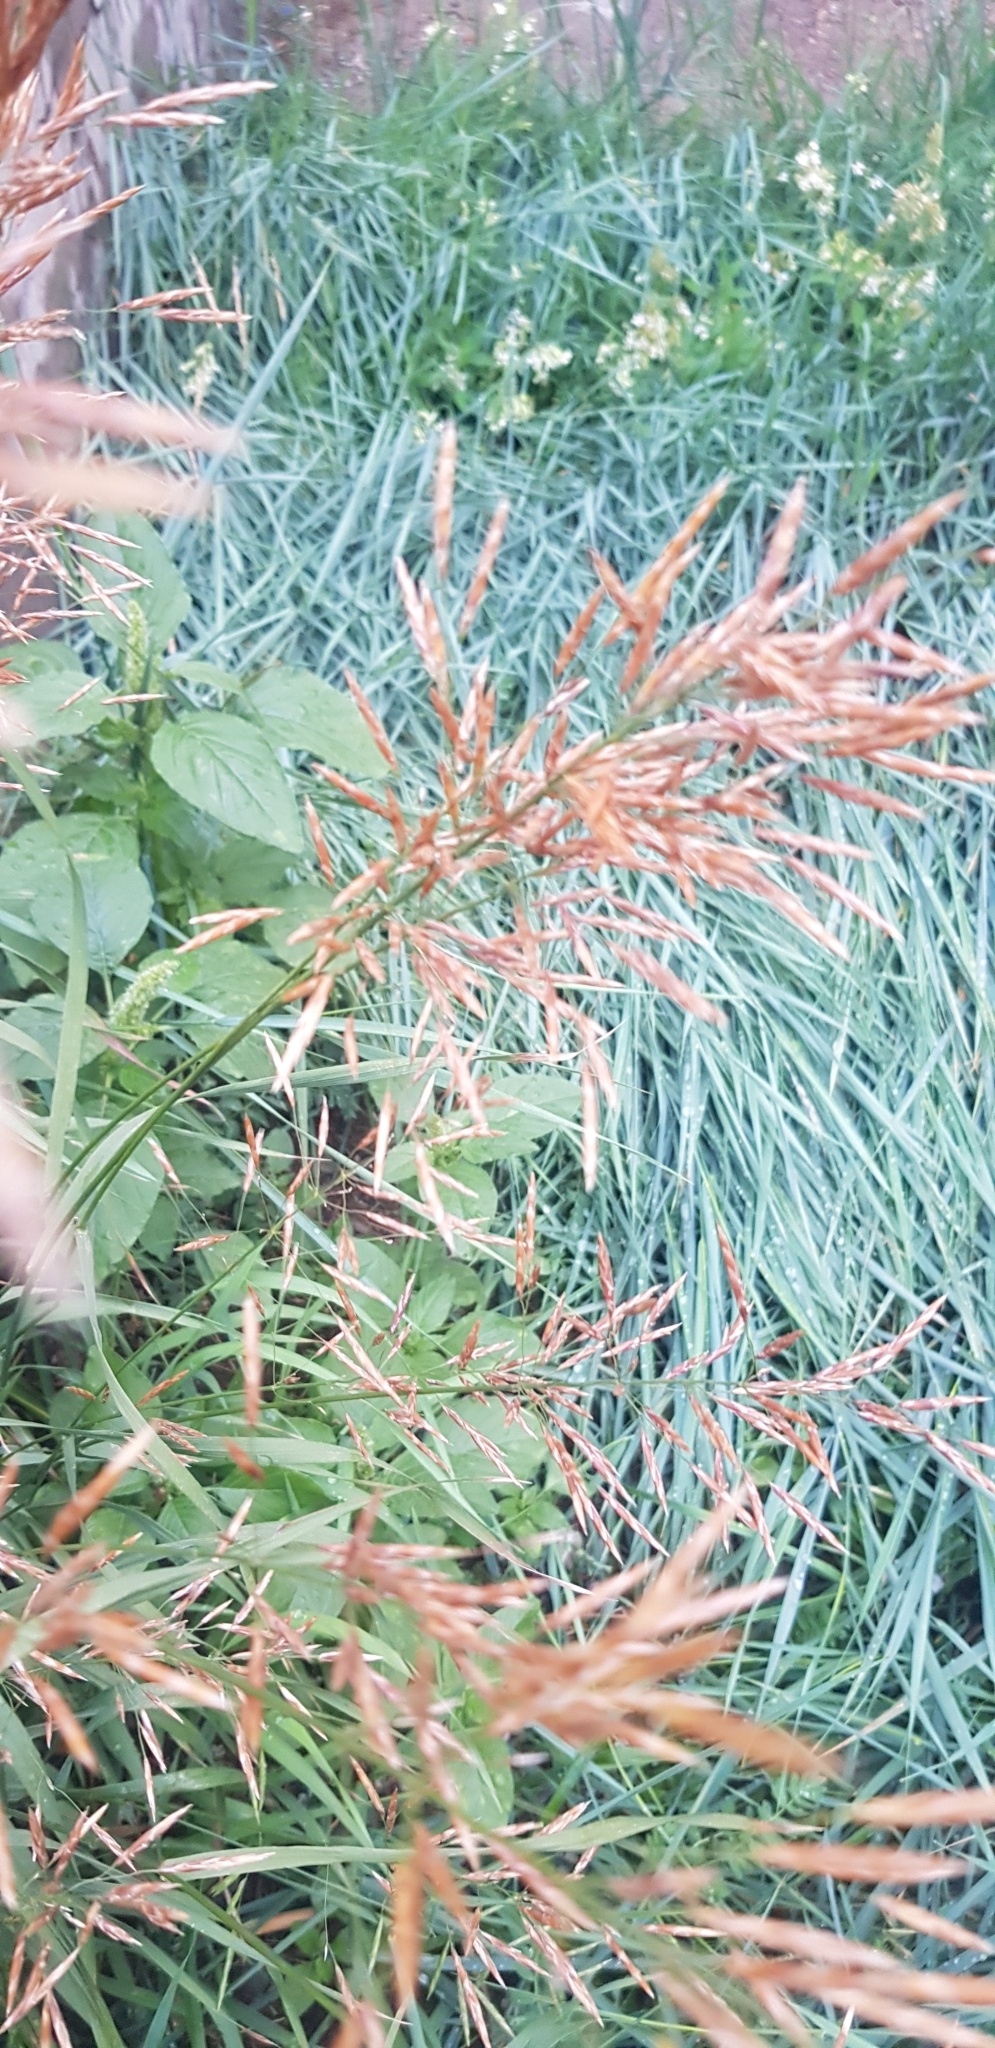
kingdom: Plantae
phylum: Tracheophyta
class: Liliopsida
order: Poales
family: Poaceae
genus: Bromus
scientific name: Bromus inermis
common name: Smooth brome
